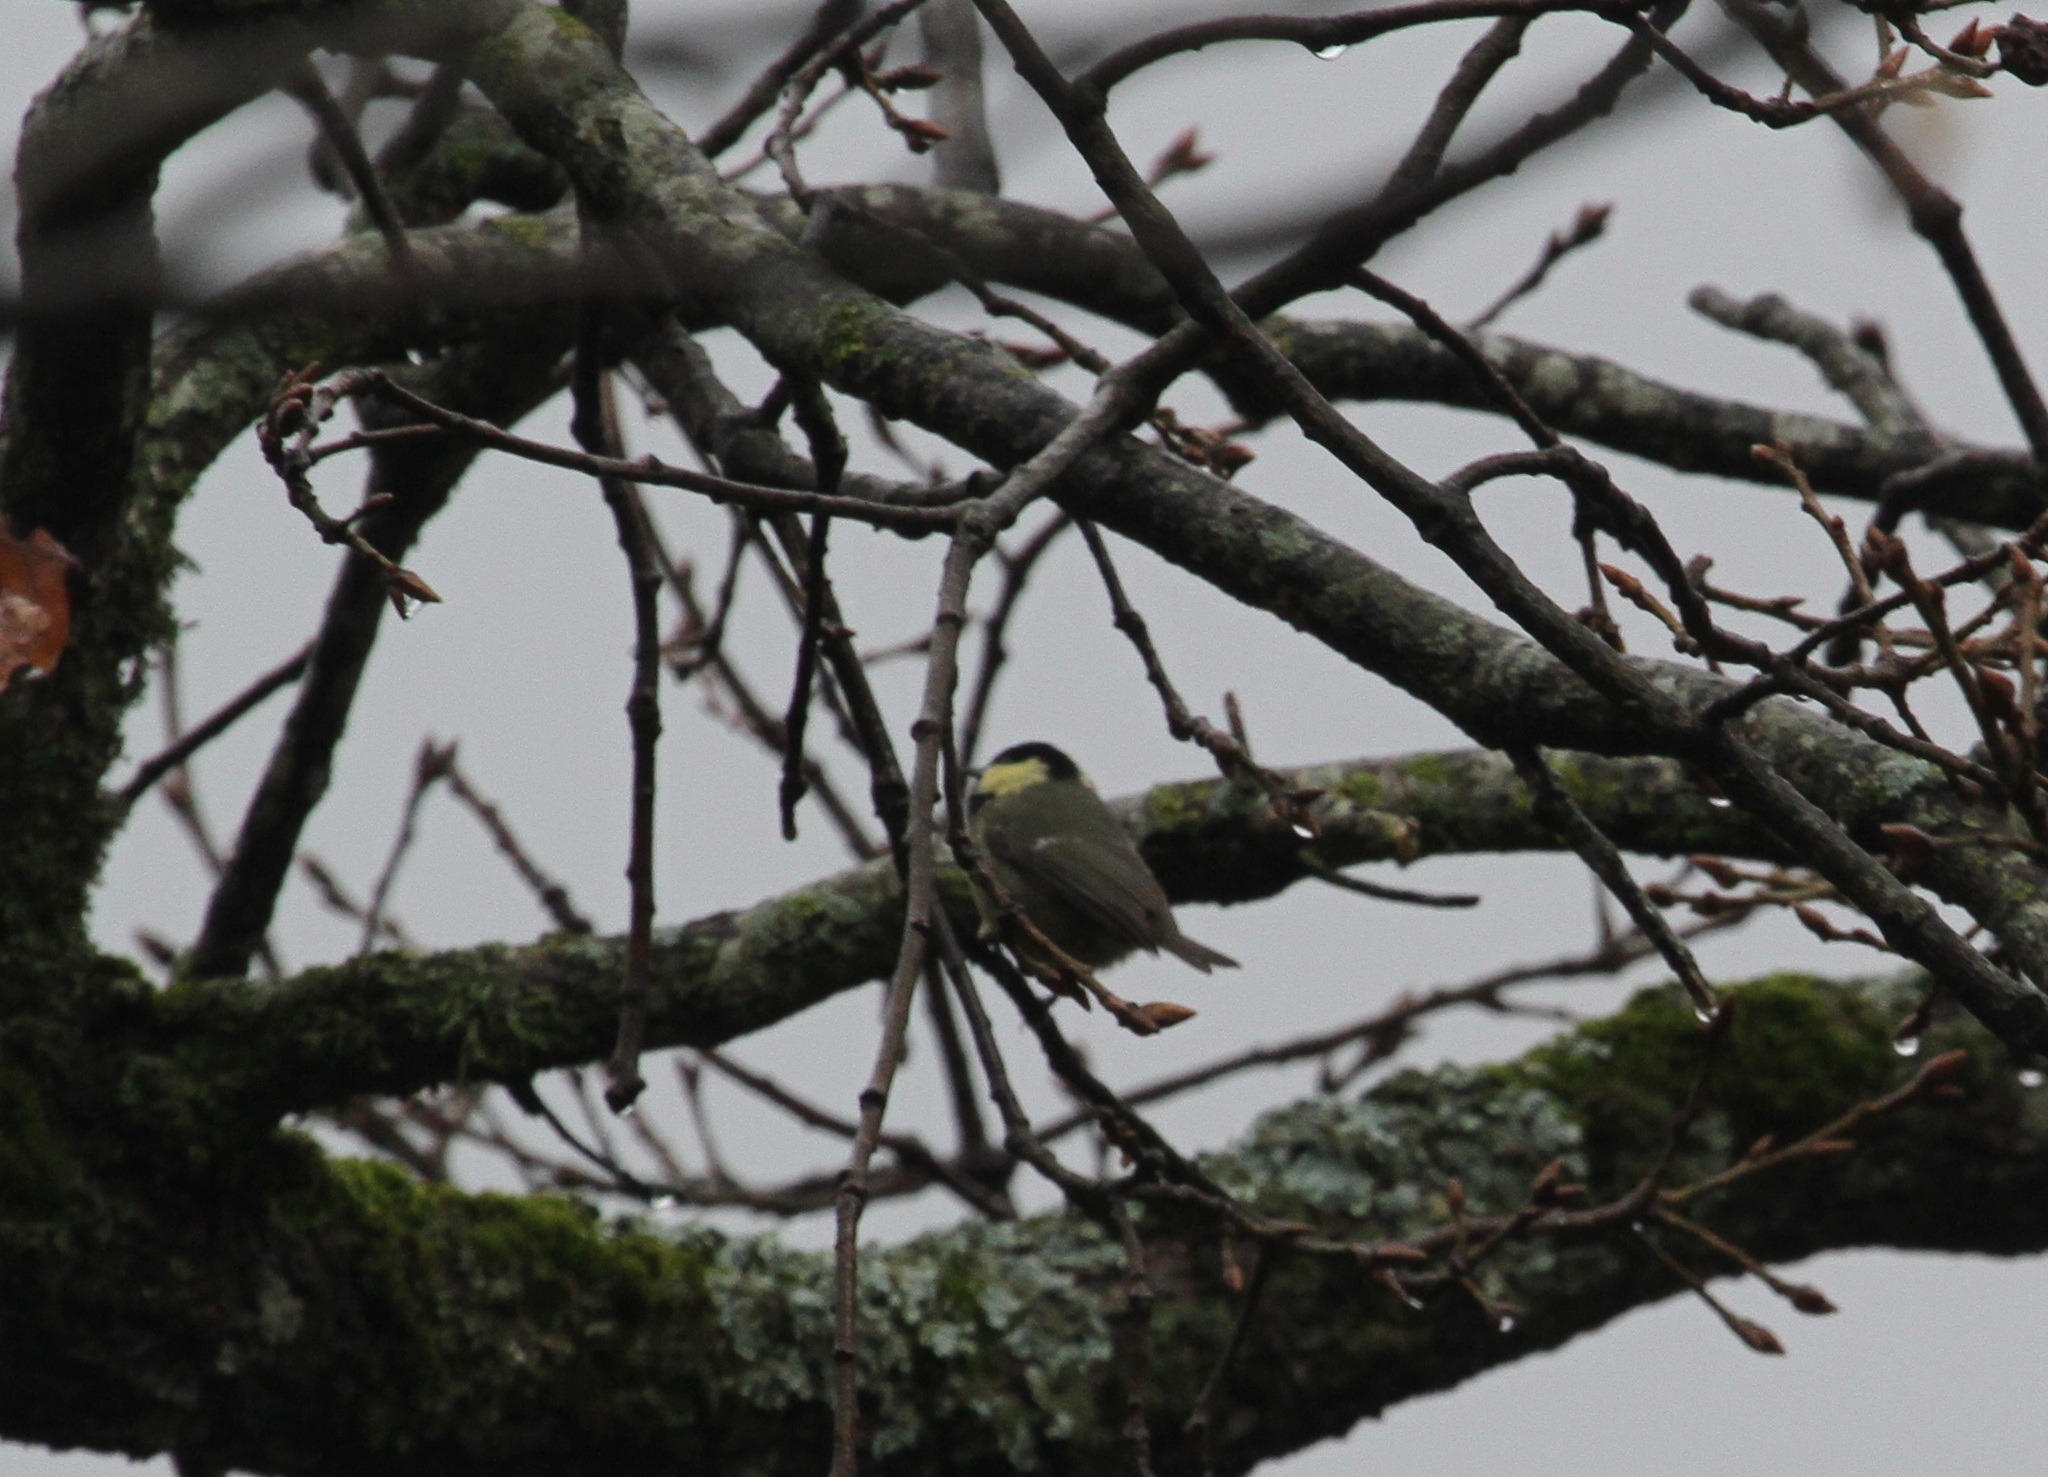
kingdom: Animalia
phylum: Chordata
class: Aves
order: Passeriformes
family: Paridae
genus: Periparus
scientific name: Periparus ater
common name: Coal tit
